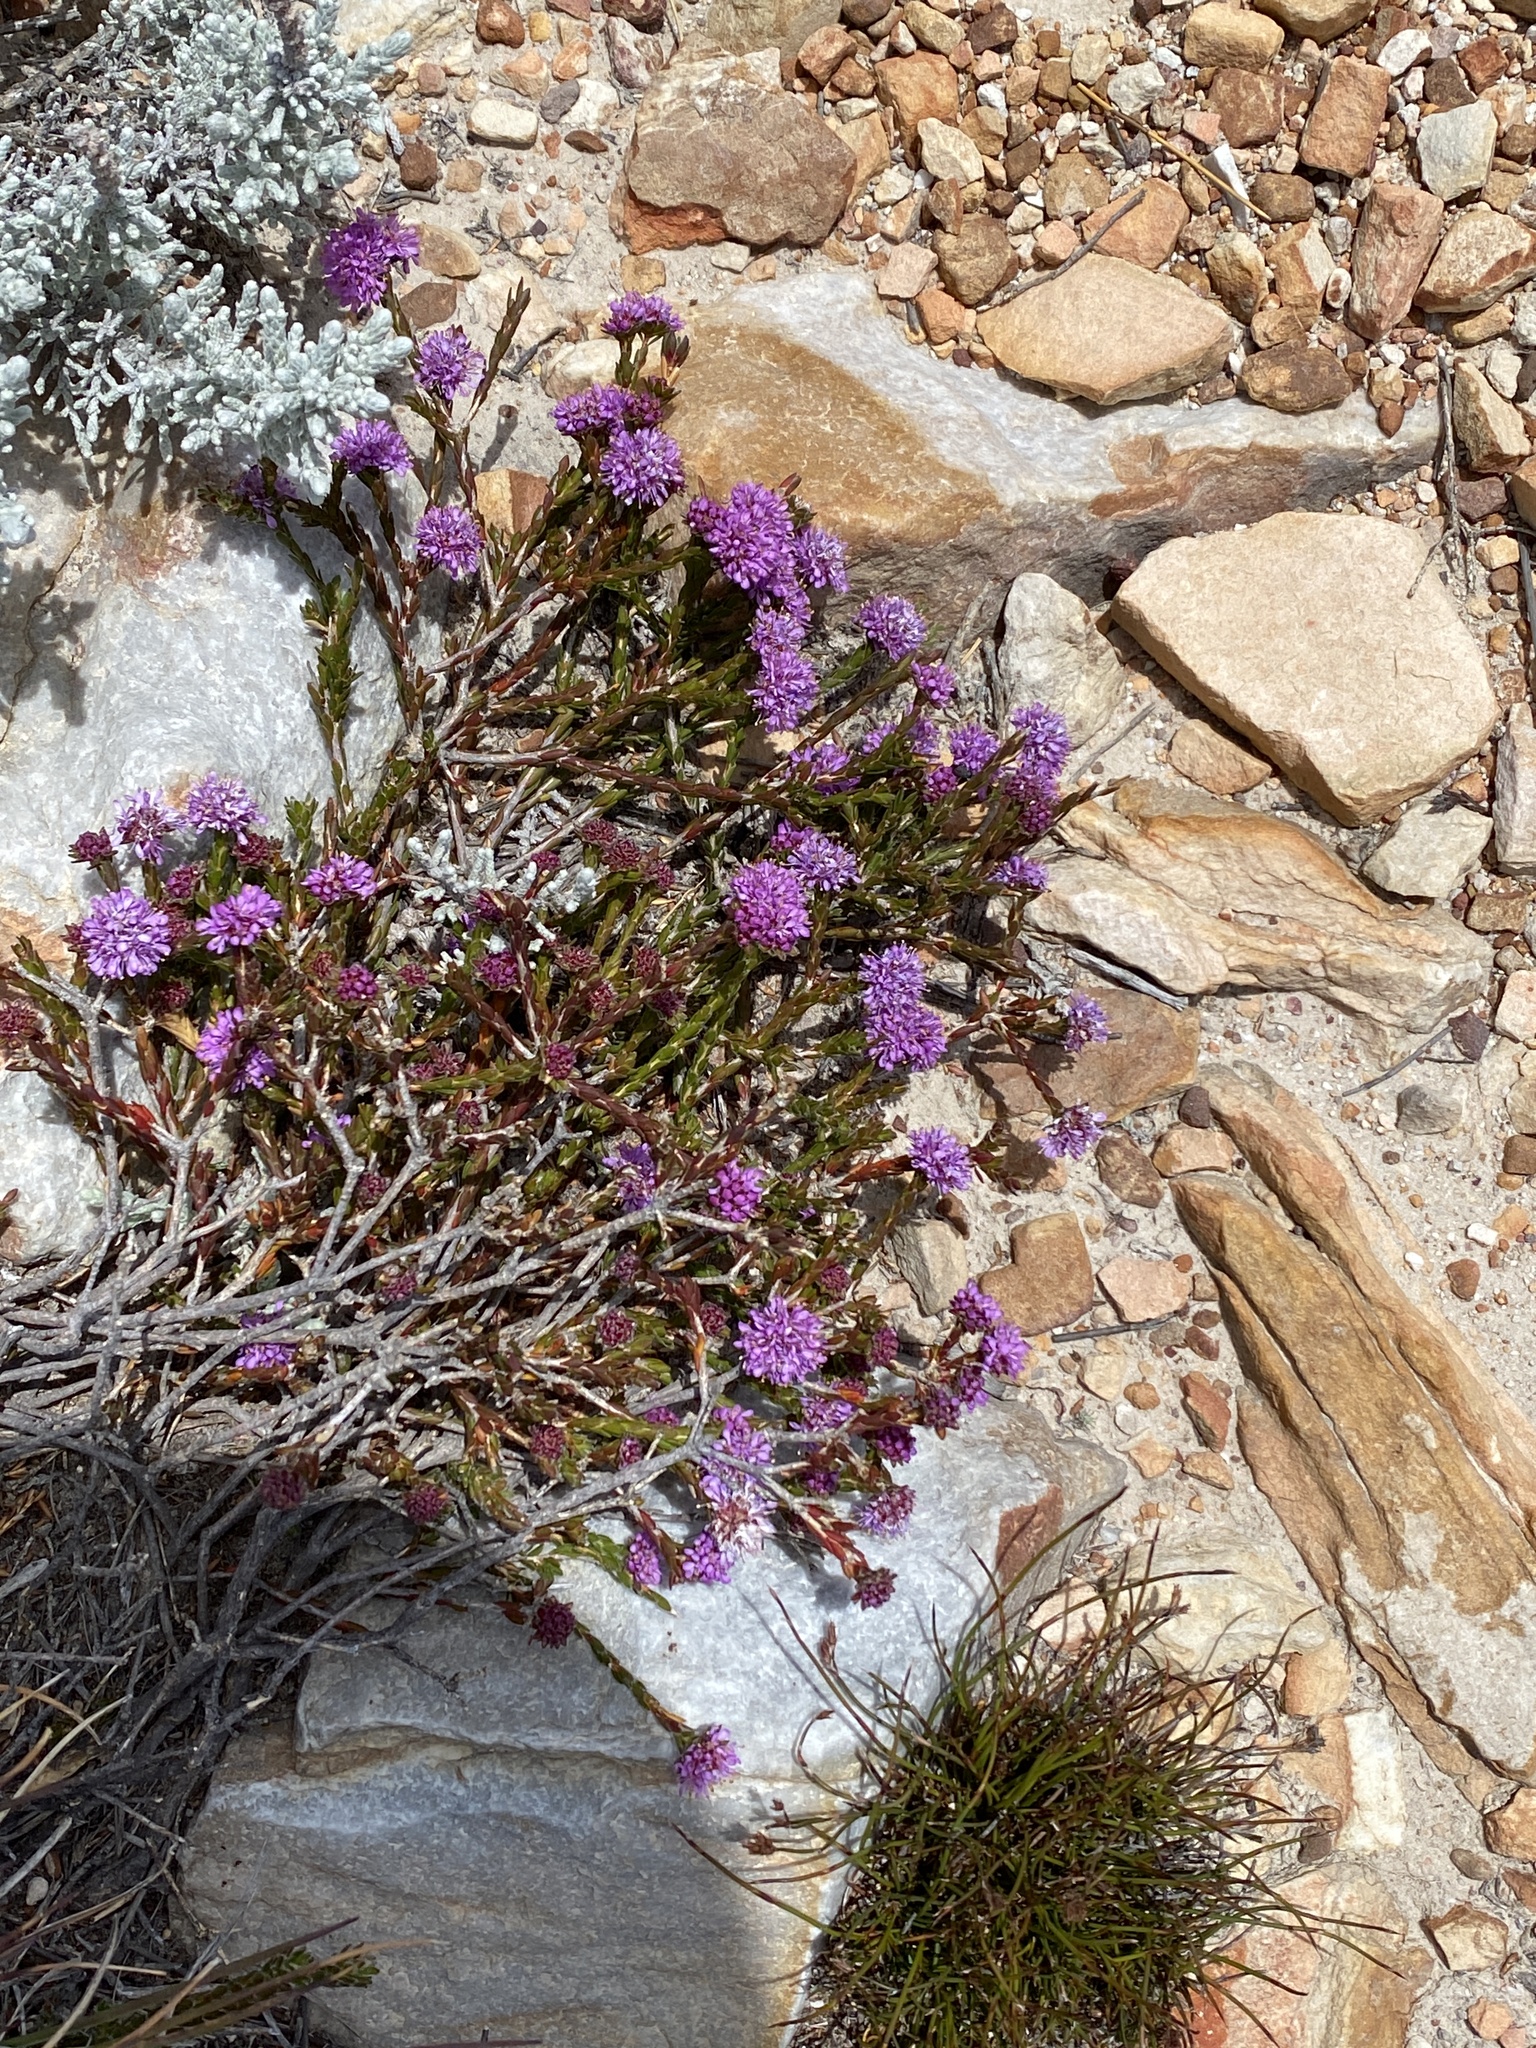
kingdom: Plantae
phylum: Tracheophyta
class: Magnoliopsida
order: Sapindales
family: Rutaceae
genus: Agathosma
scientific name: Agathosma foleyana
